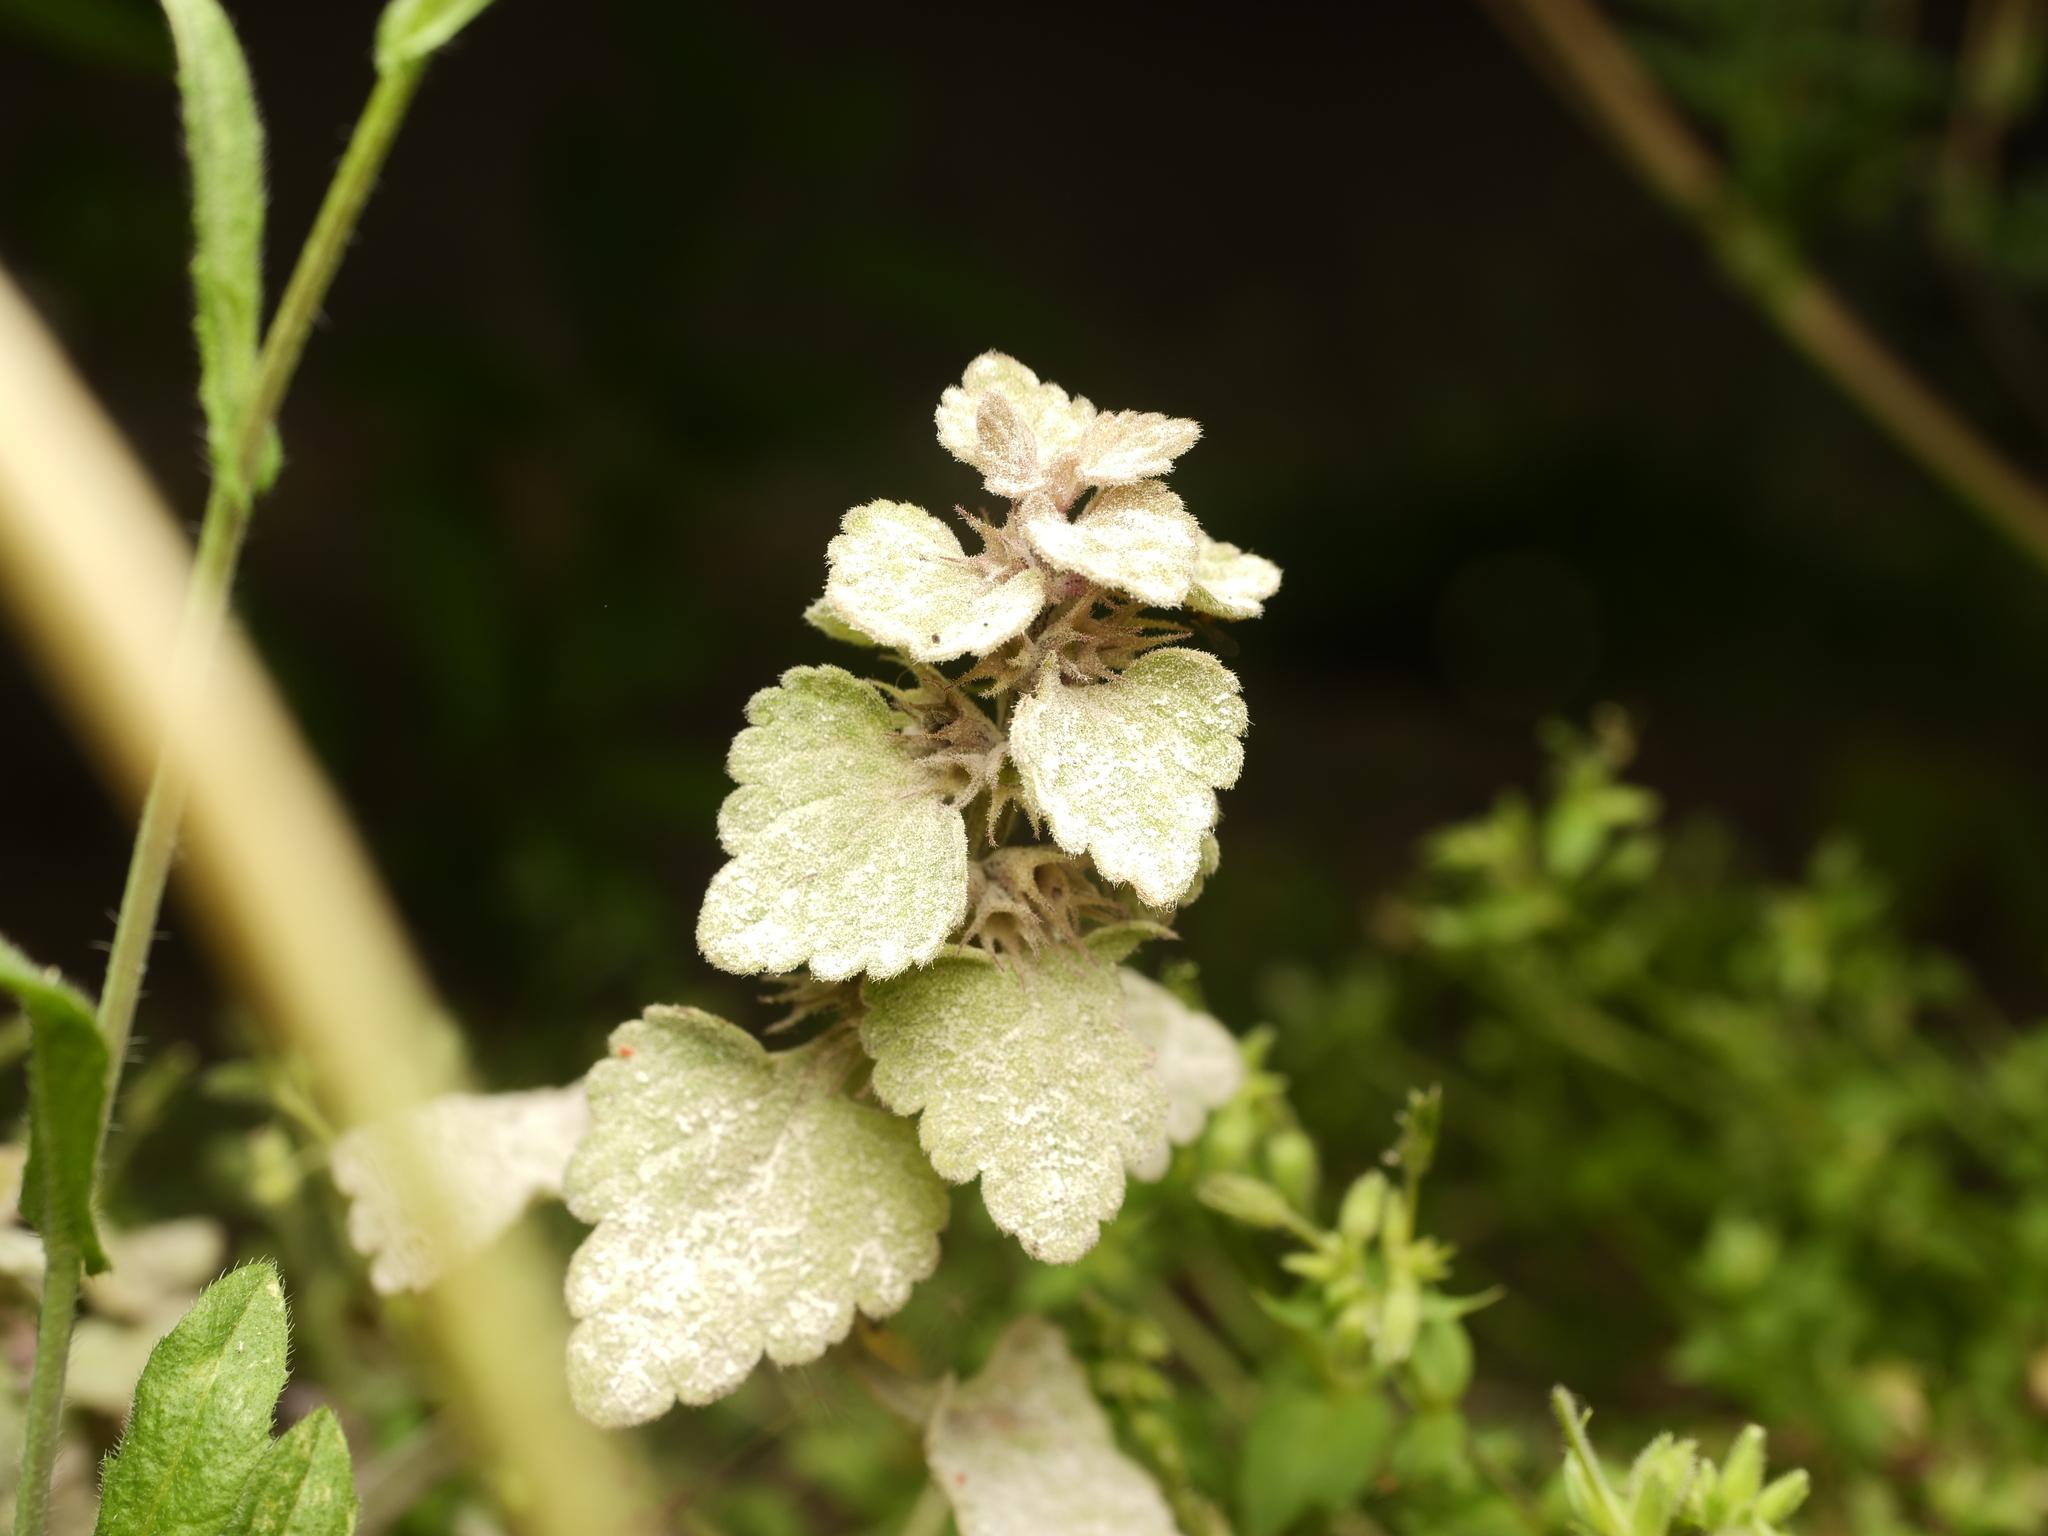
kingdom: Fungi
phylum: Ascomycota
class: Leotiomycetes
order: Helotiales
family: Erysiphaceae
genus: Neoerysiphe
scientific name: Neoerysiphe galeopsidis
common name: Mint mildew
